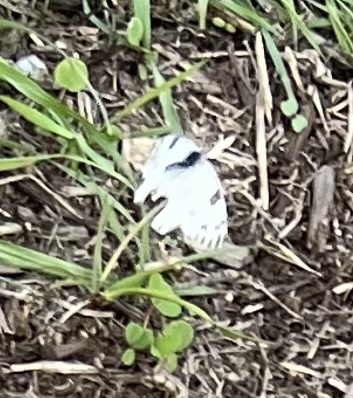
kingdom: Animalia
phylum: Arthropoda
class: Insecta
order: Lepidoptera
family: Pieridae
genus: Pontia
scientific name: Pontia protodice
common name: Checkered white
